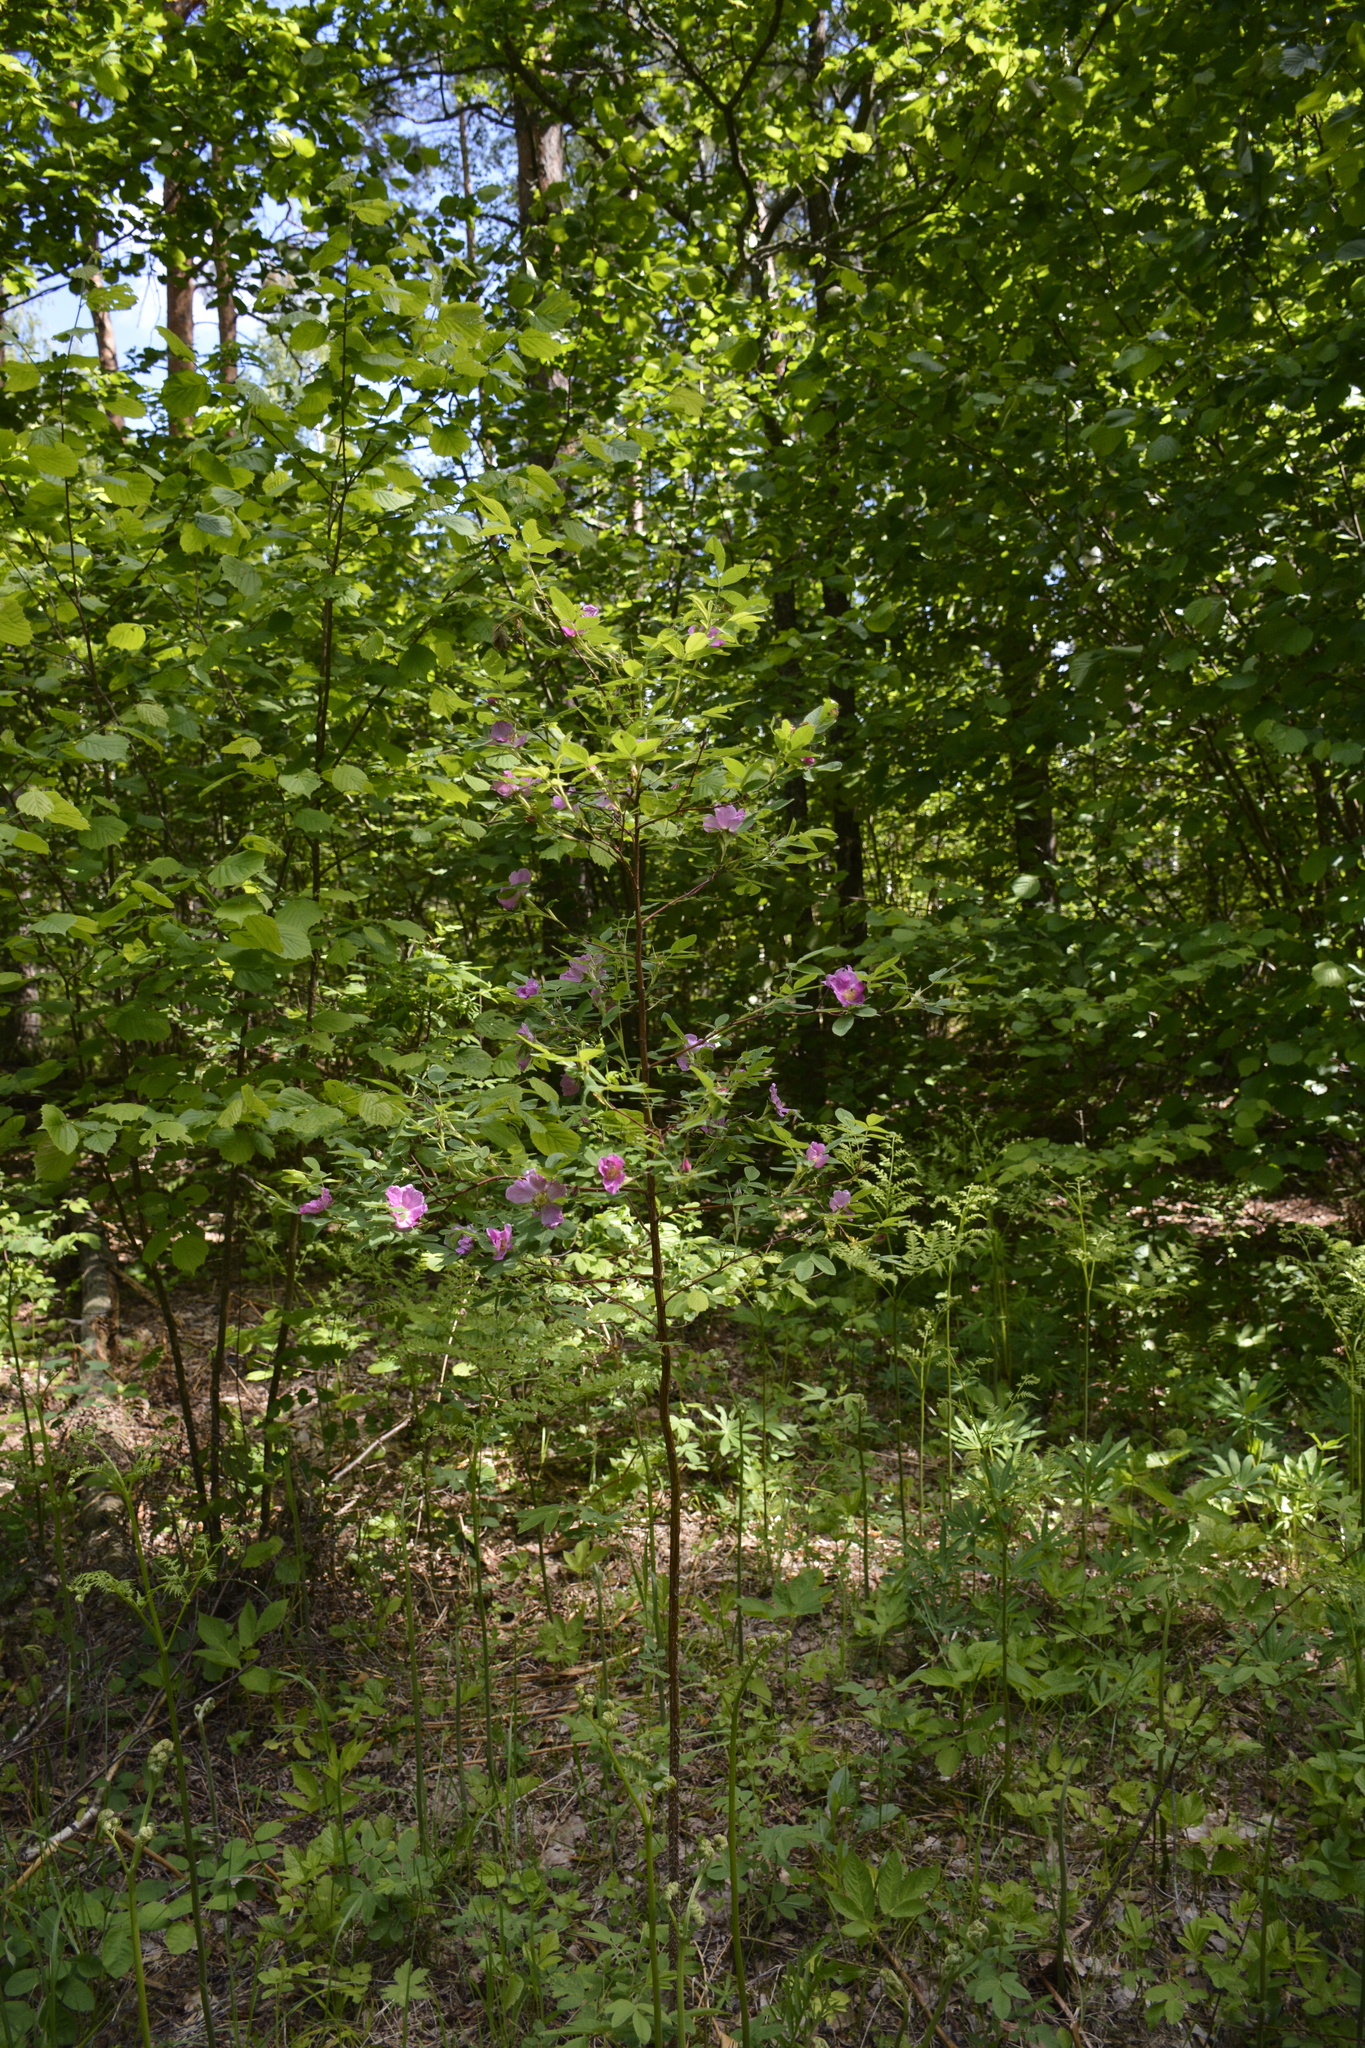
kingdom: Plantae
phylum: Tracheophyta
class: Magnoliopsida
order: Rosales
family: Rosaceae
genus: Rosa
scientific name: Rosa majalis
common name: Cinnamon rose
